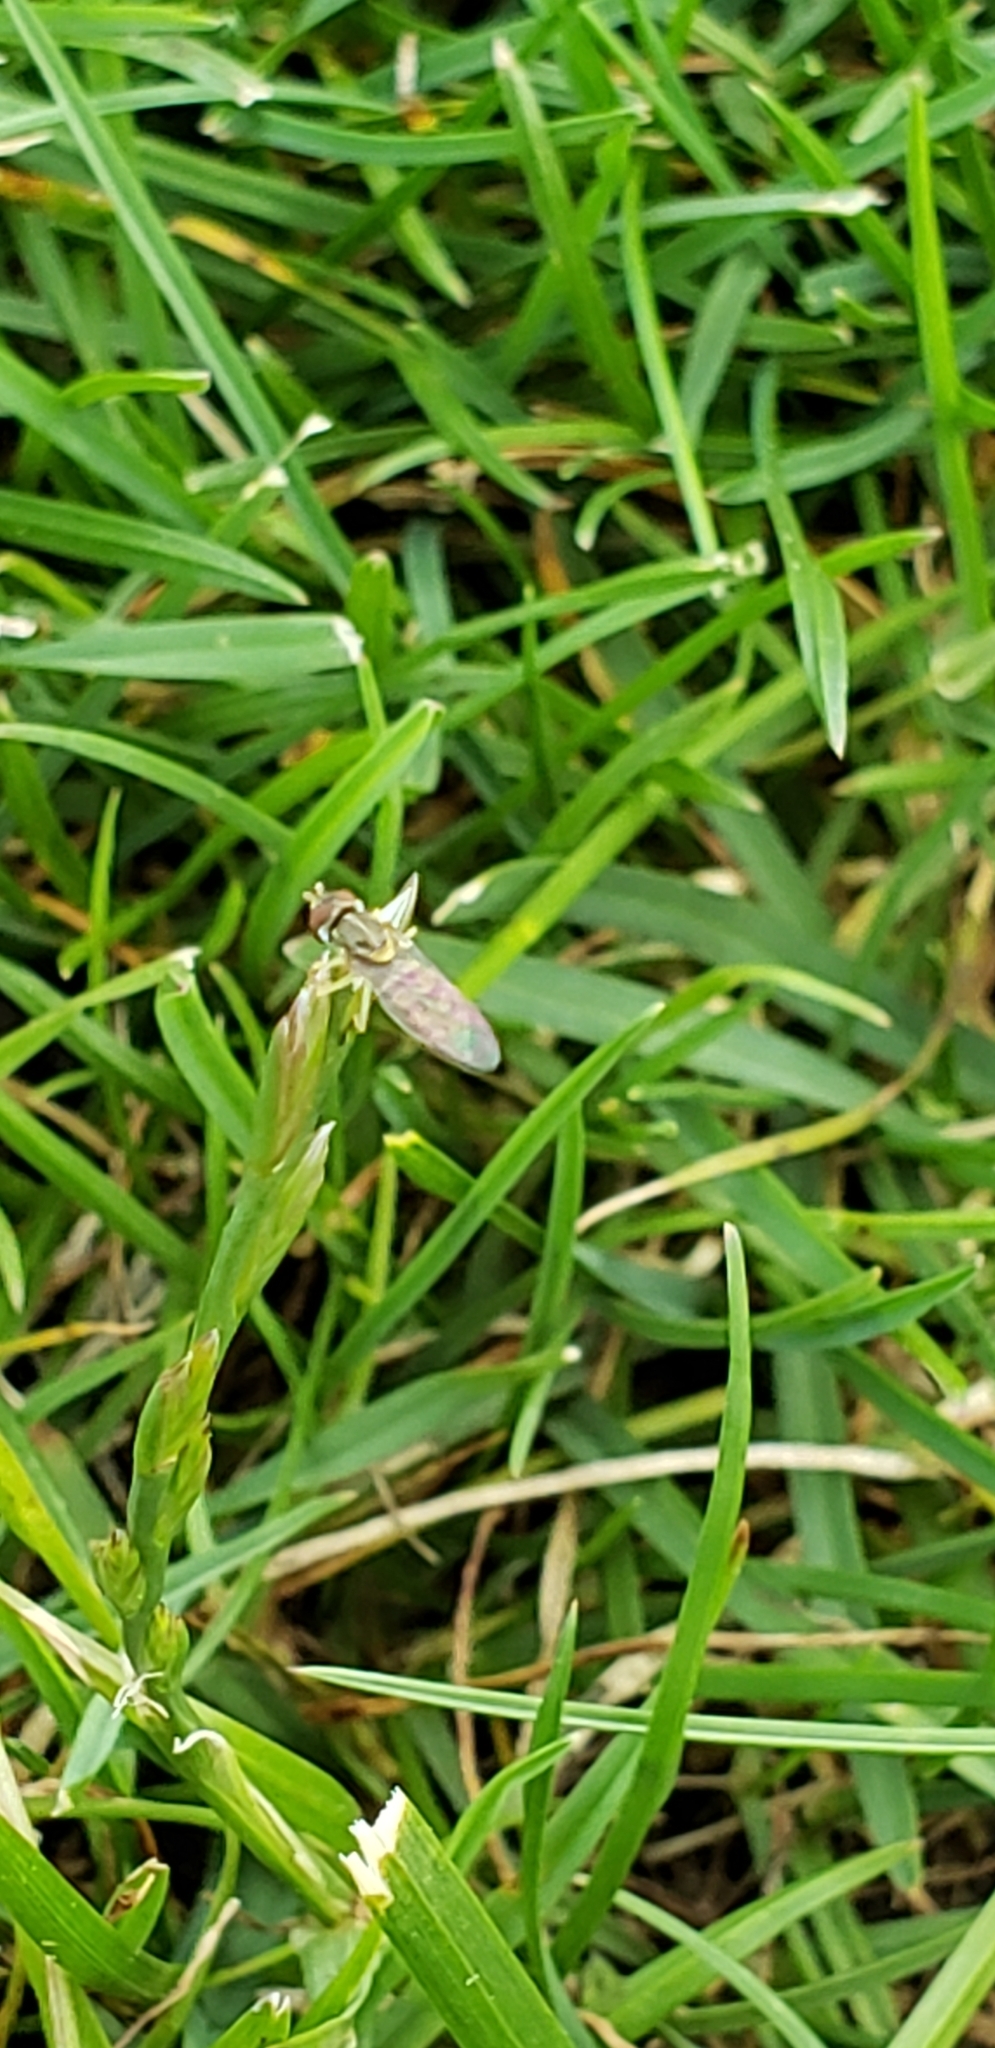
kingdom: Animalia
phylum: Arthropoda
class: Insecta
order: Diptera
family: Syrphidae
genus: Toxomerus
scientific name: Toxomerus marginatus
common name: Syrphid fly
